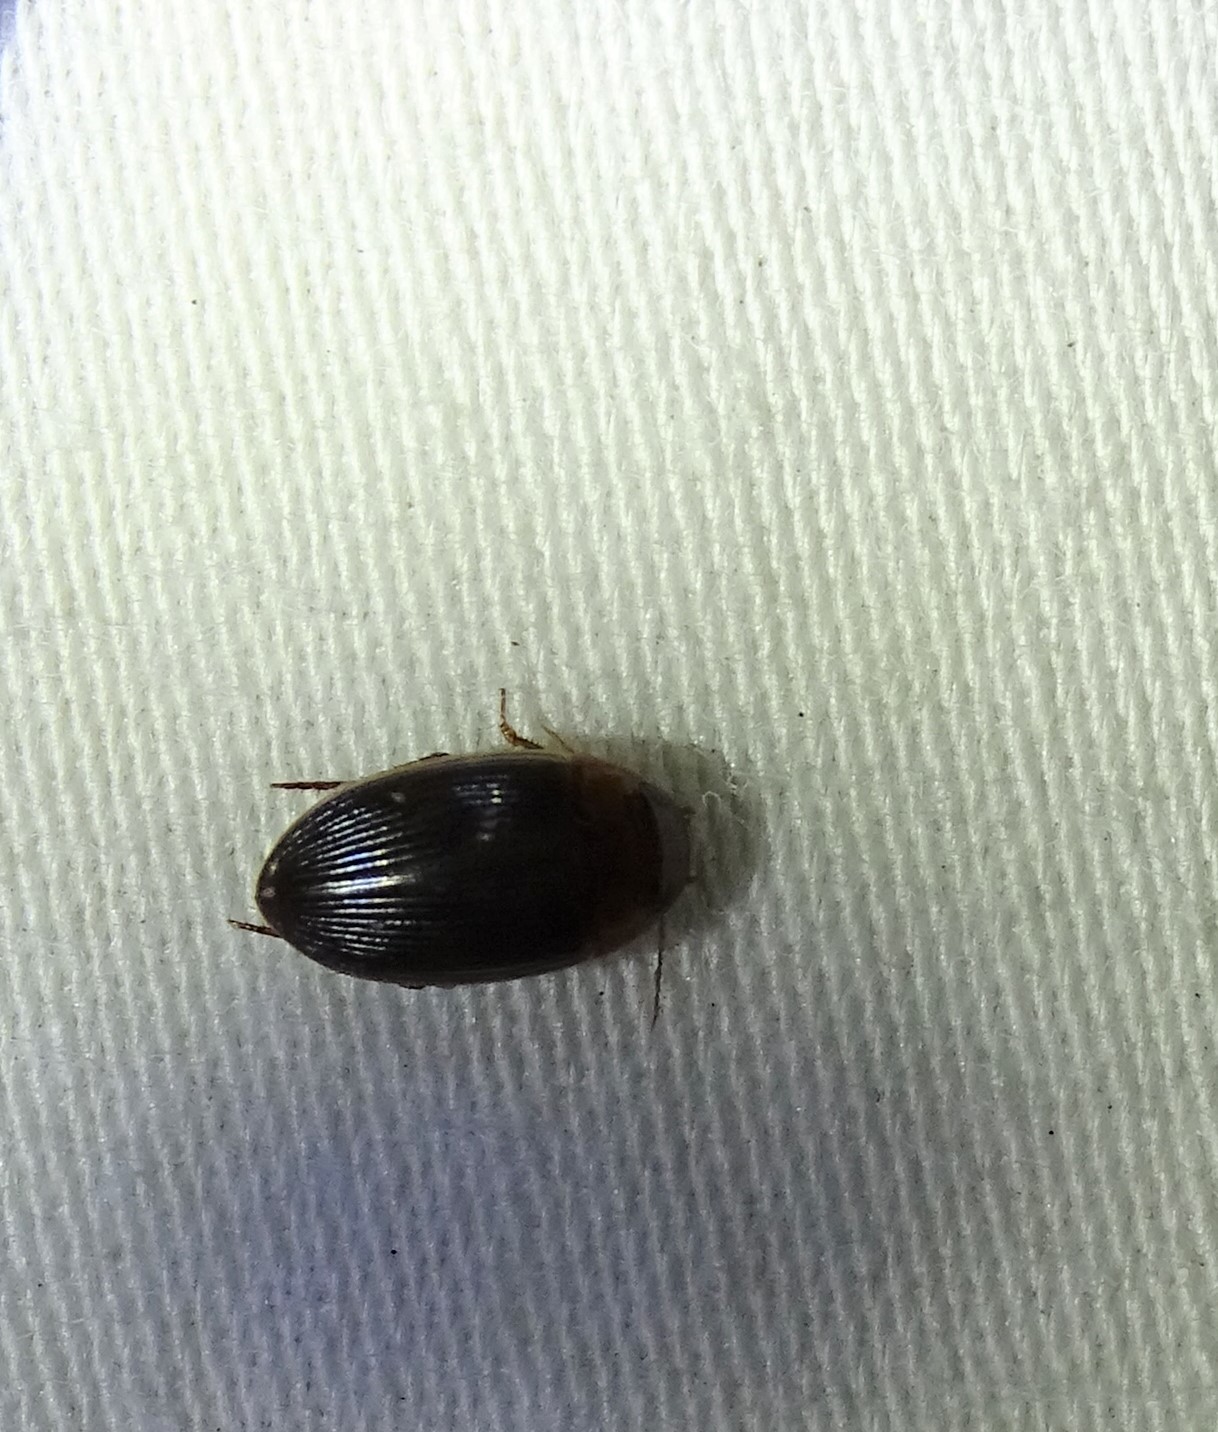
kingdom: Animalia
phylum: Arthropoda
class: Insecta
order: Coleoptera
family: Dytiscidae
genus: Copelatus
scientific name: Copelatus
